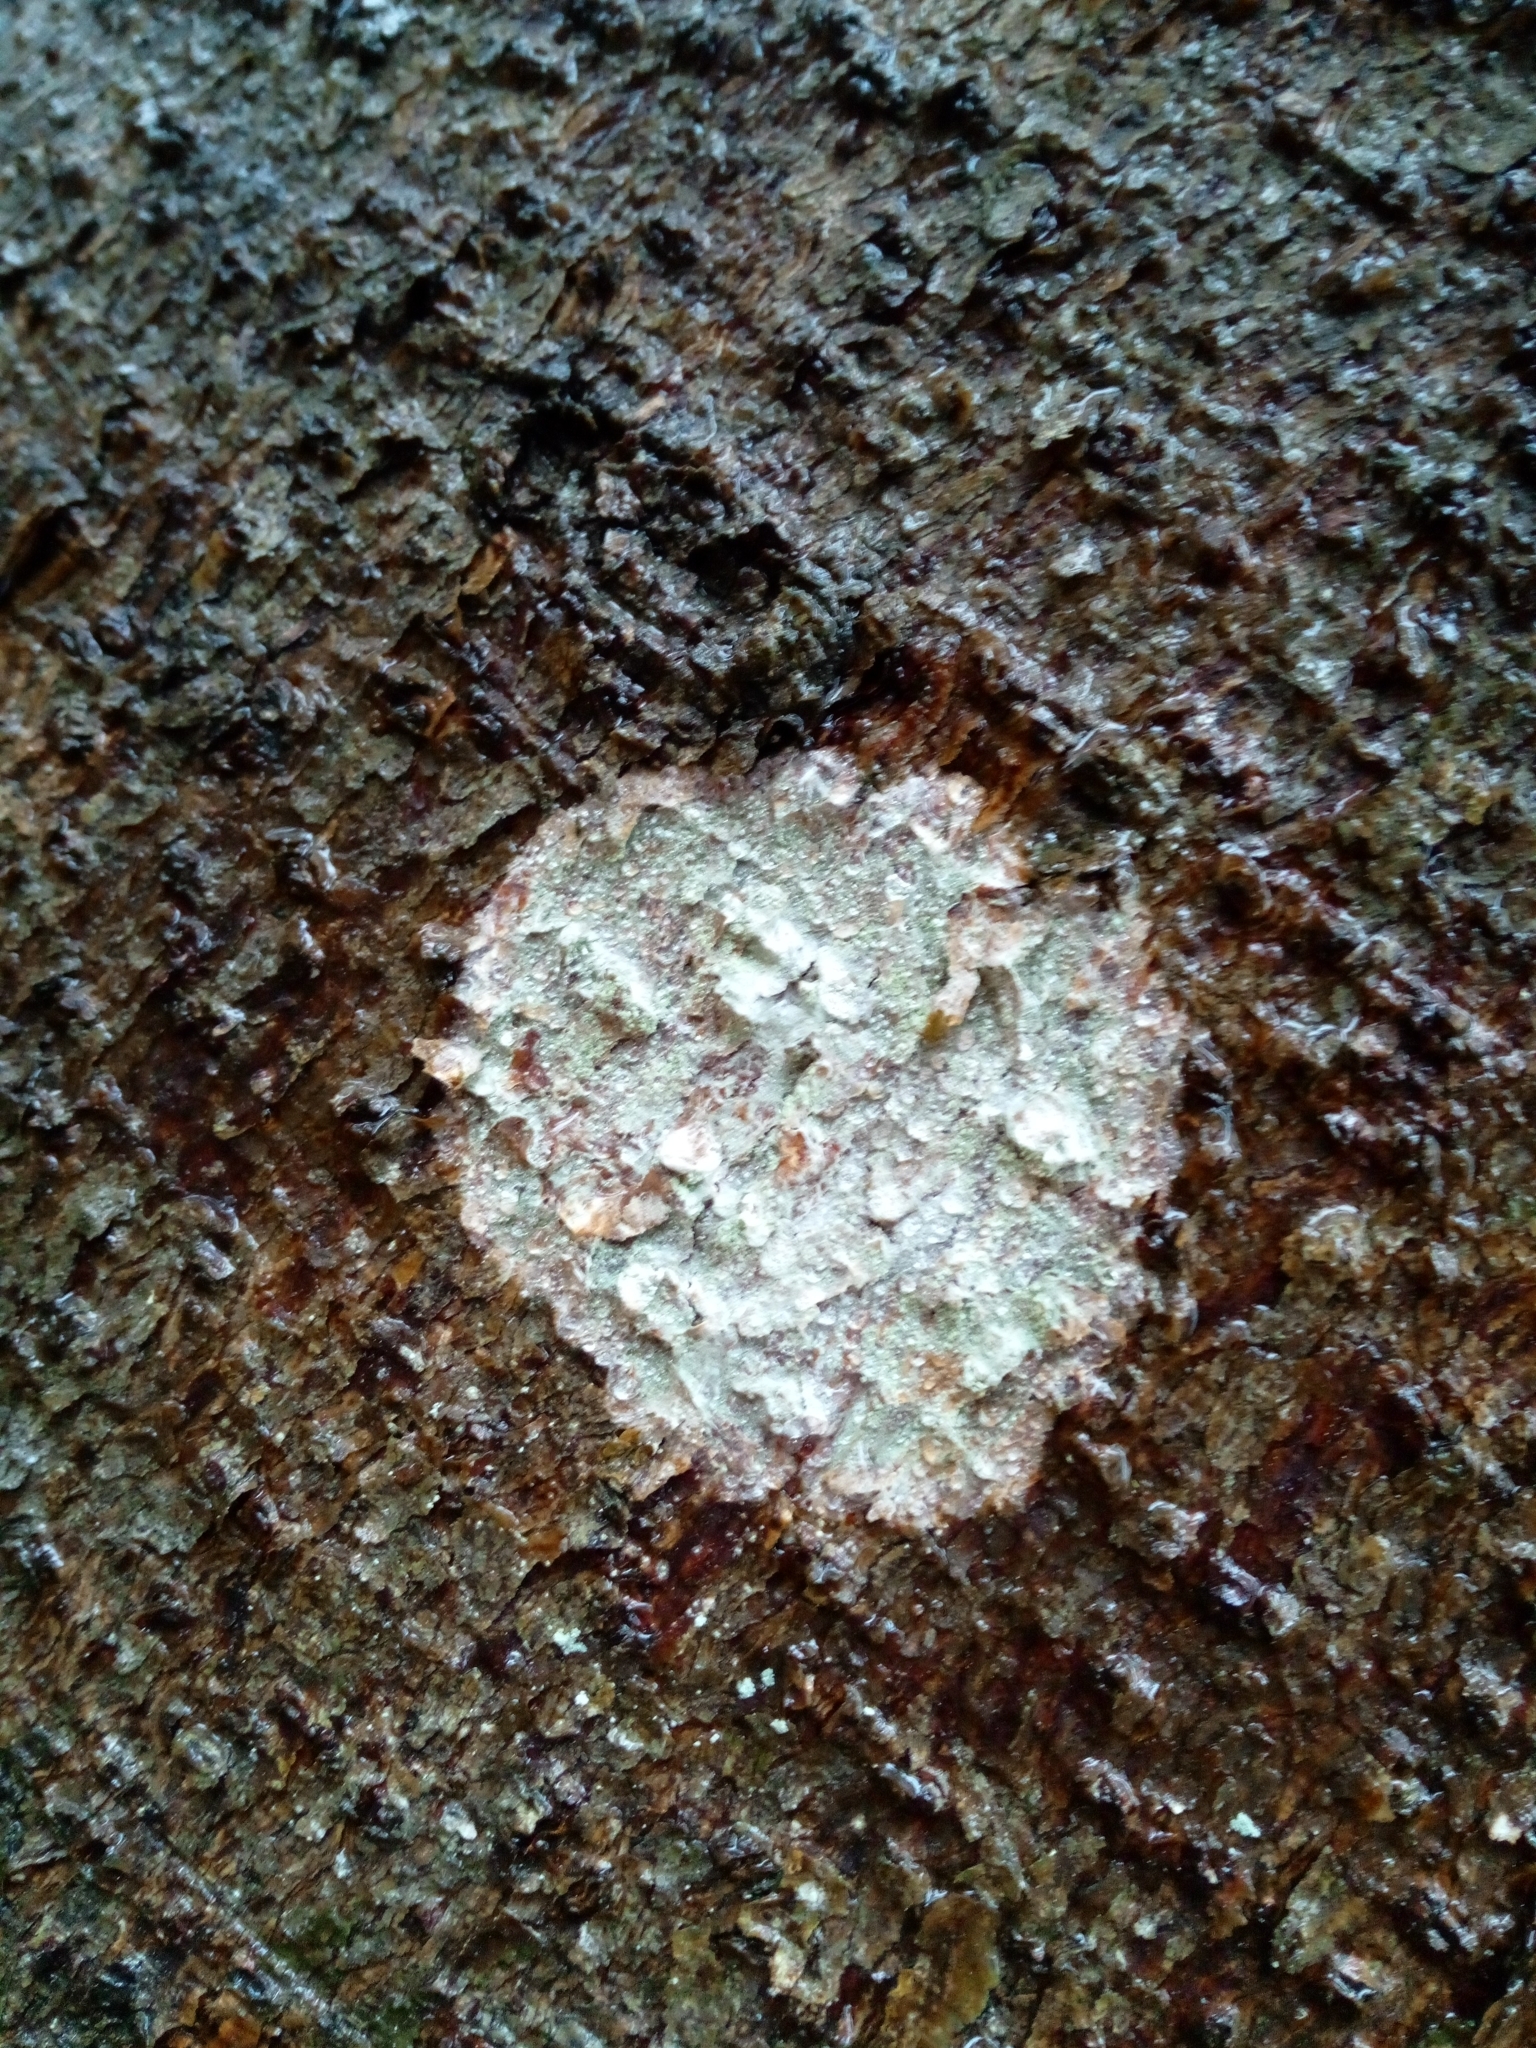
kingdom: Fungi
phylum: Ascomycota
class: Lecanoromycetes
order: Ostropales
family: Phlyctidaceae
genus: Phlyctis
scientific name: Phlyctis argena
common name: Whitewash lichen
